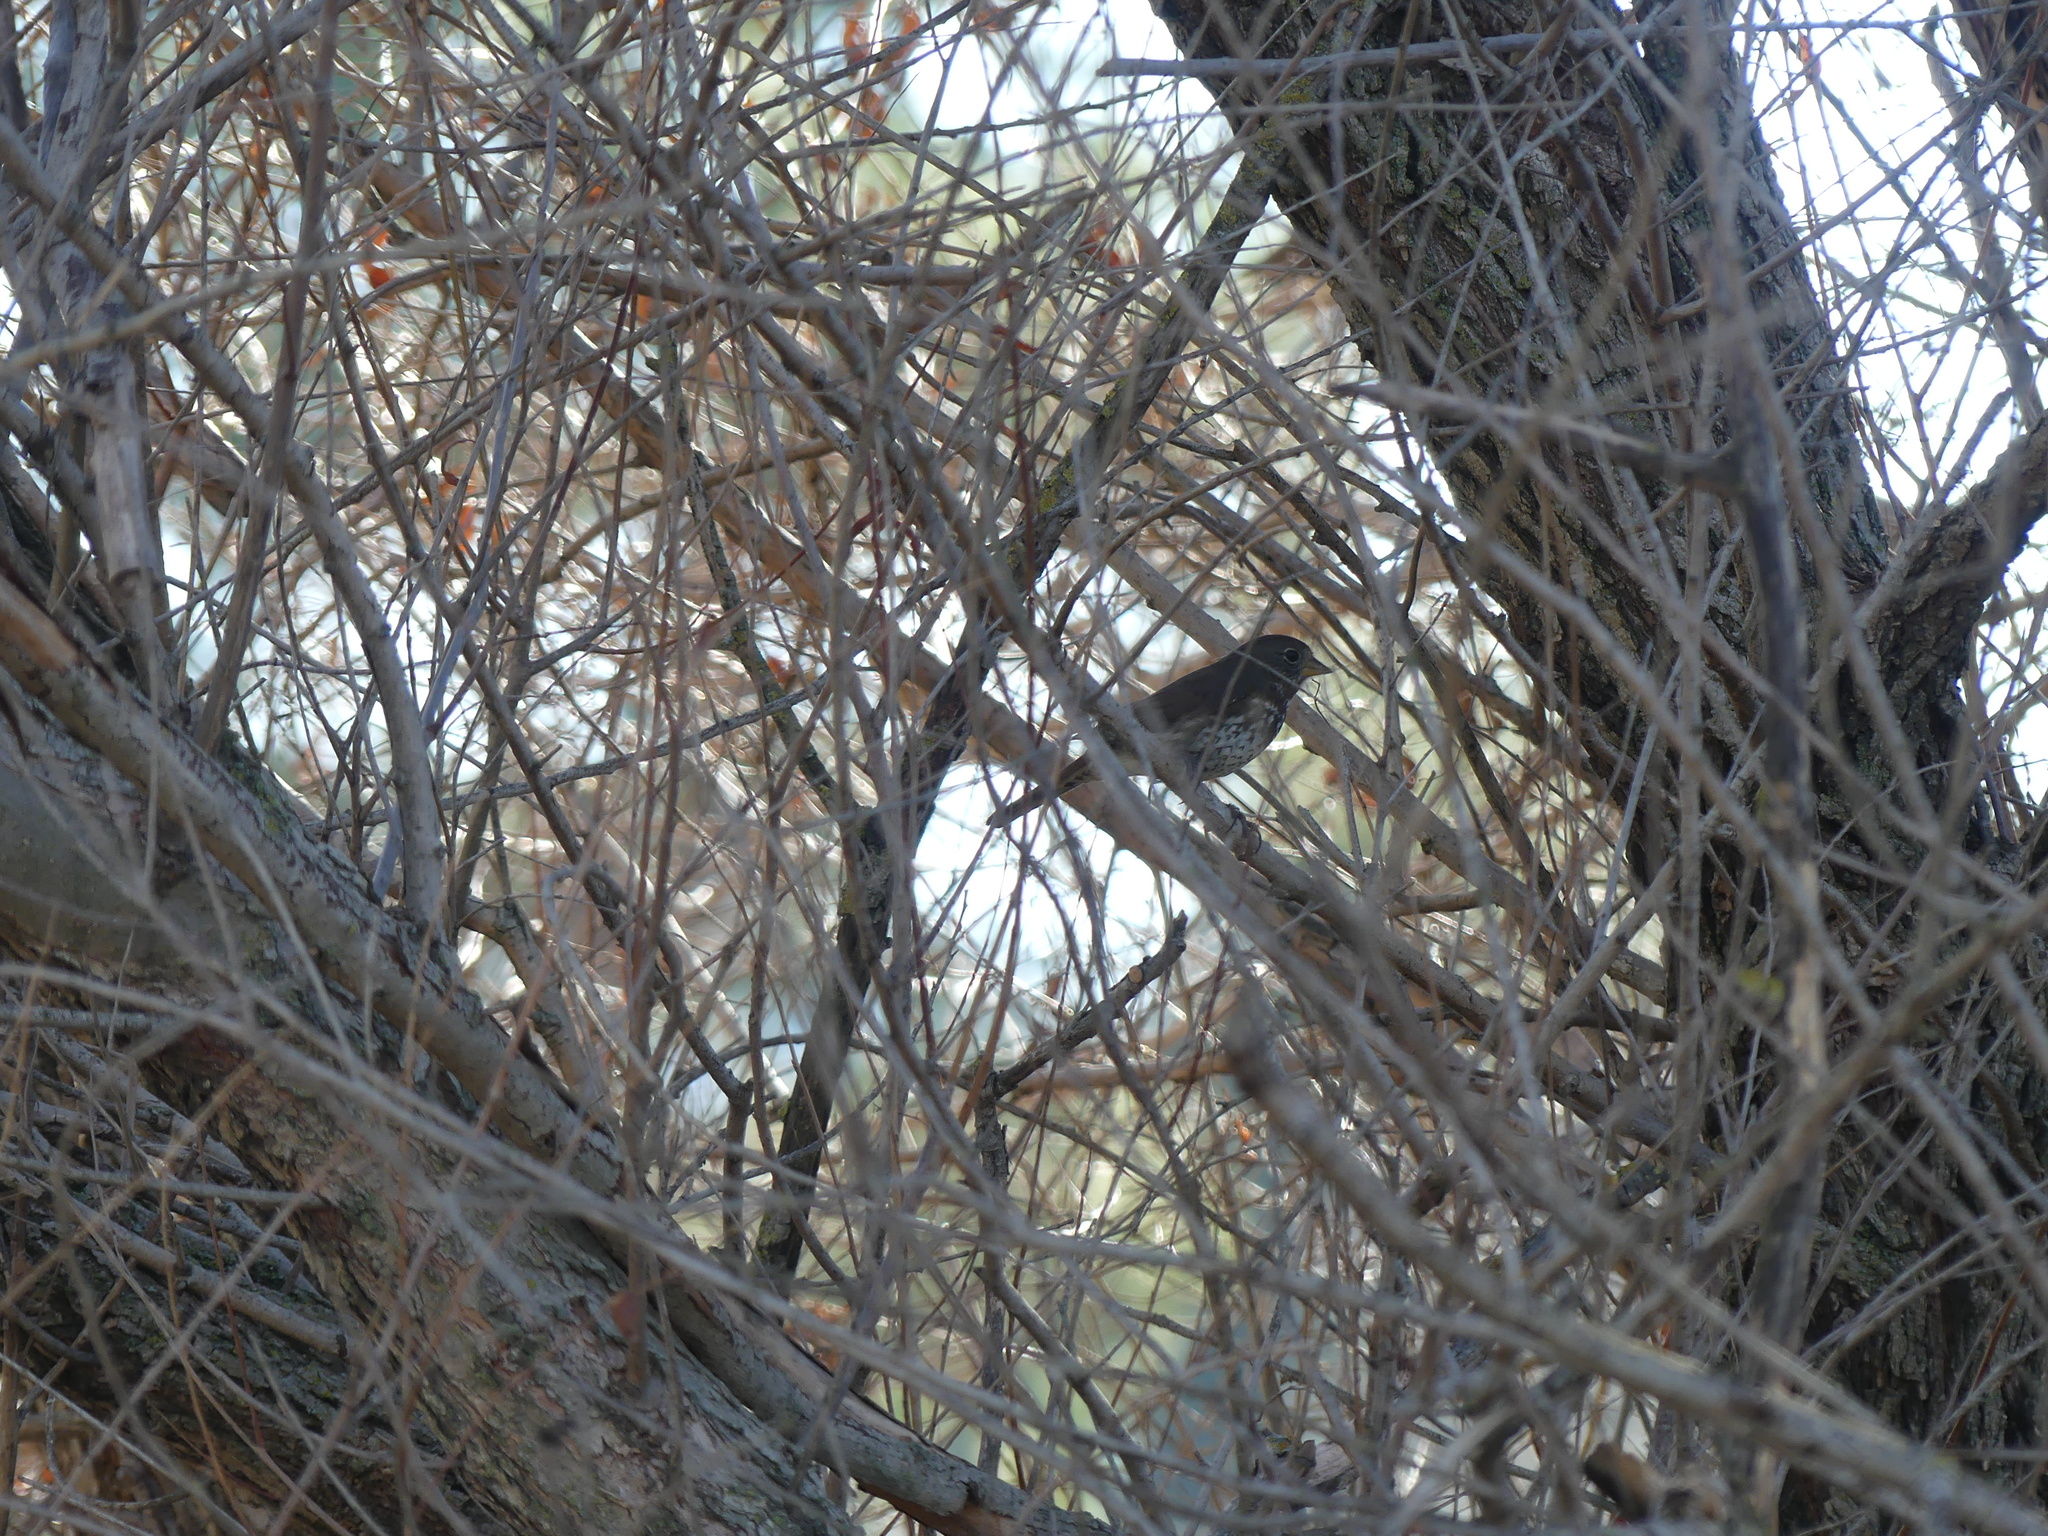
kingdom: Animalia
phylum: Chordata
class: Aves
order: Passeriformes
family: Passerellidae
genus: Passerella
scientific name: Passerella iliaca
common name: Fox sparrow
